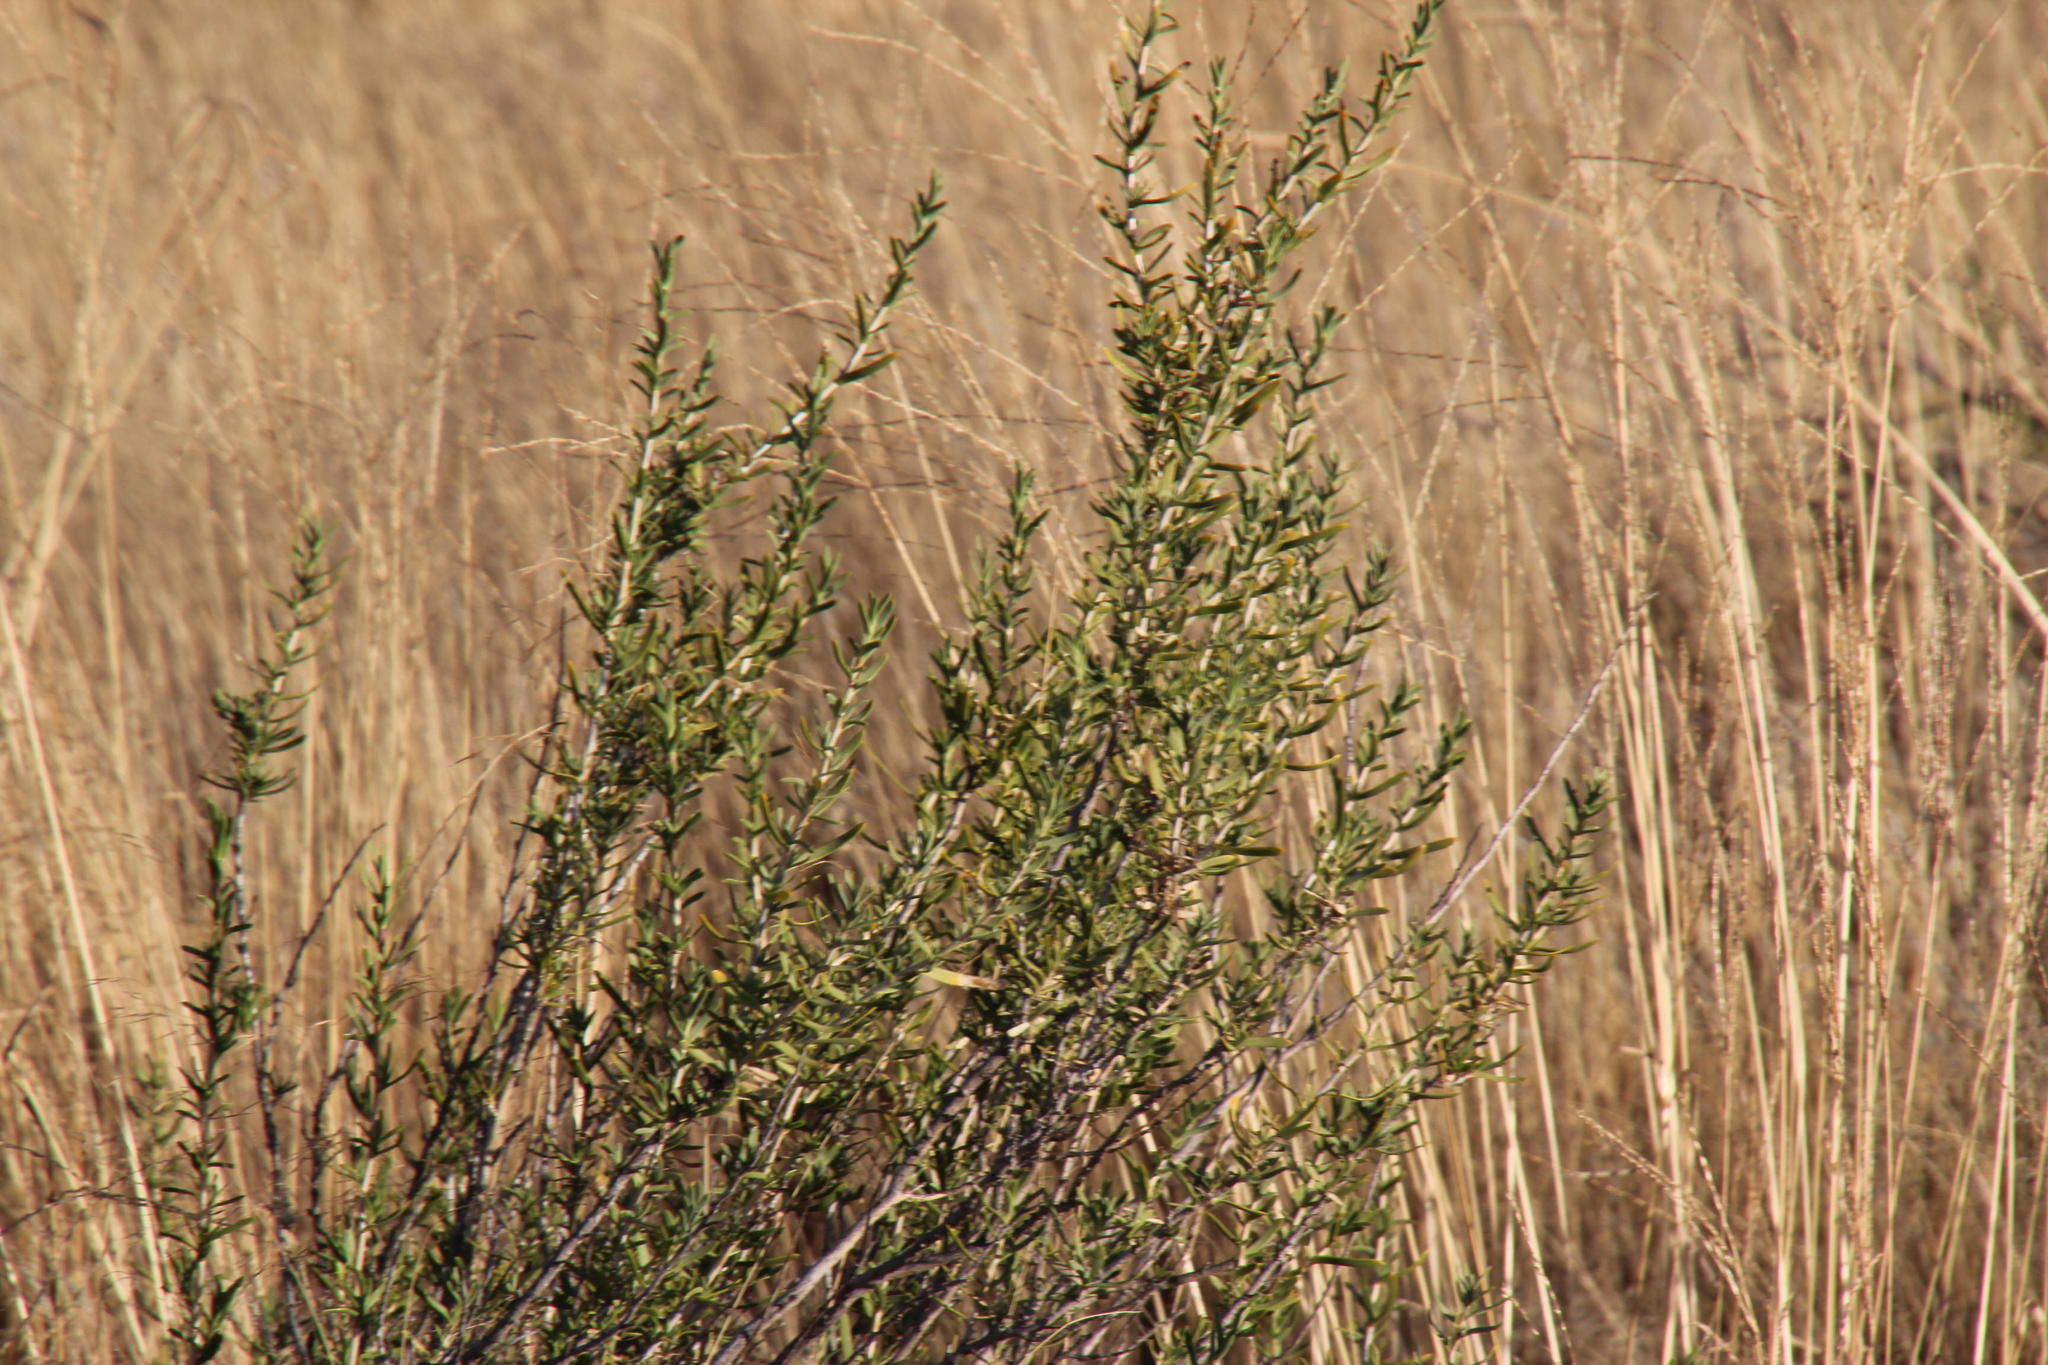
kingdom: Plantae
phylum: Tracheophyta
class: Magnoliopsida
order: Asterales
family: Asteraceae
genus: Hertia
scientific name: Hertia pallens
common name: Springbokbush
